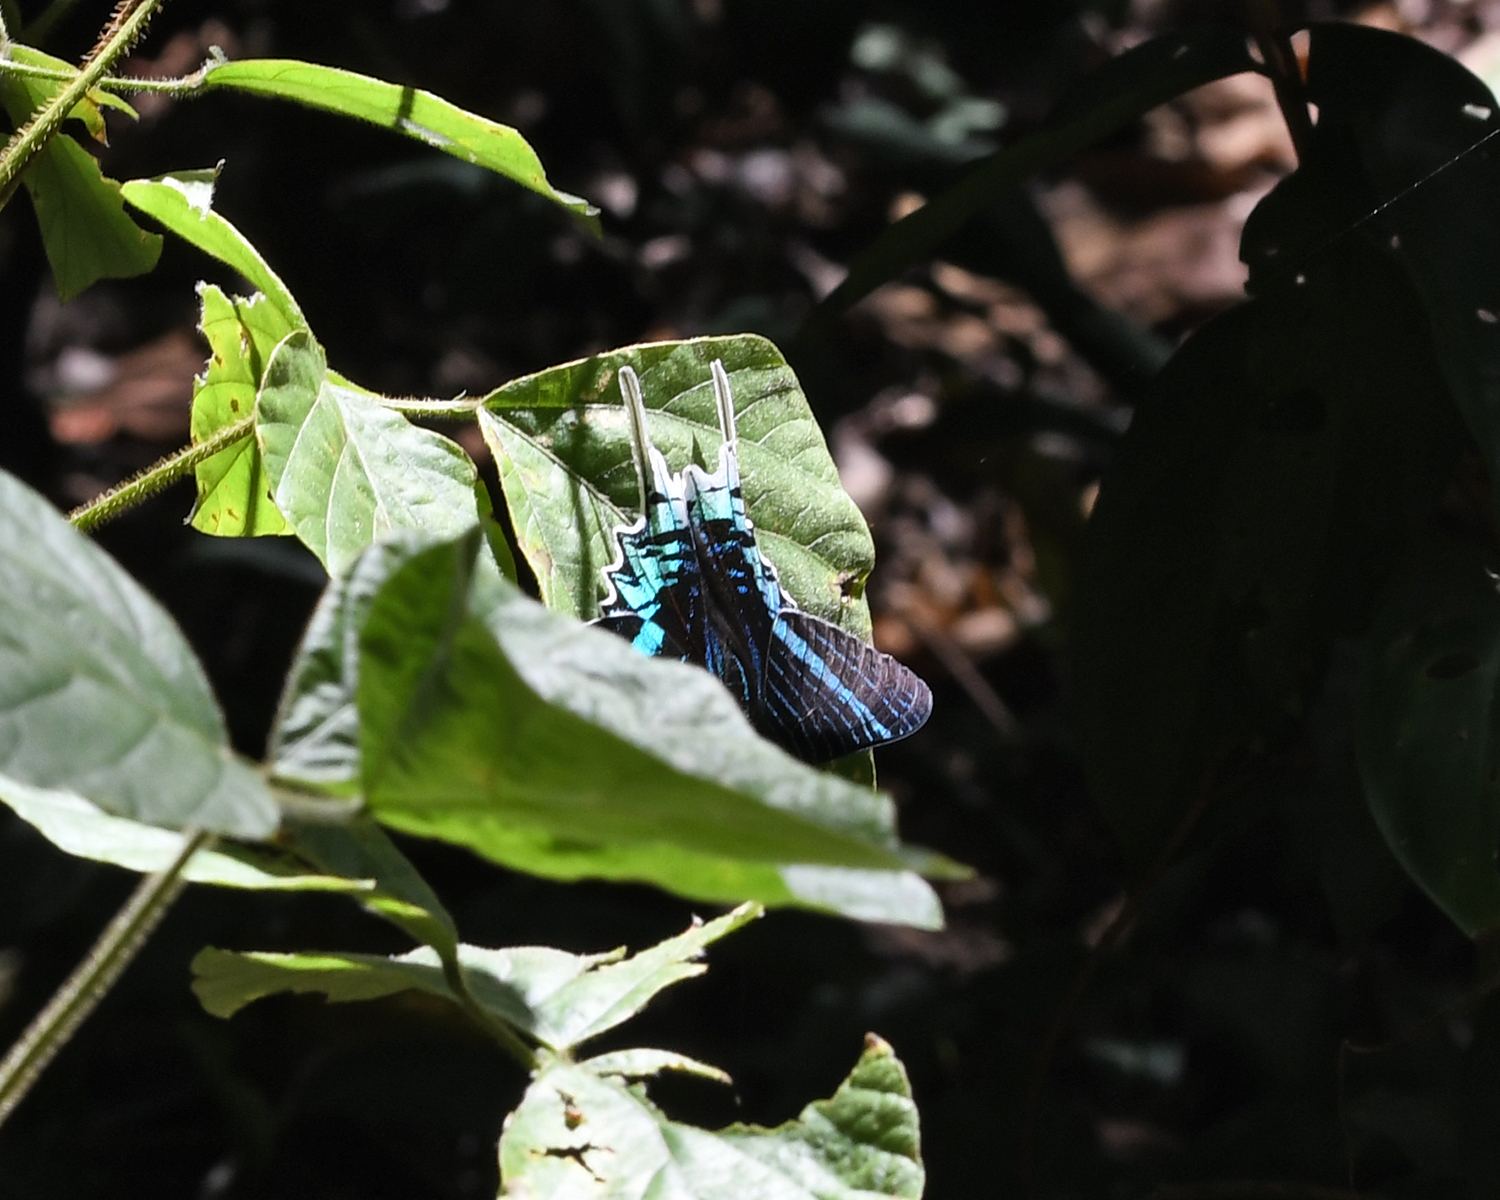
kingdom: Animalia
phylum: Arthropoda
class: Insecta
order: Lepidoptera
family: Uraniidae
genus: Urania
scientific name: Urania leilus
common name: Peacock moth
